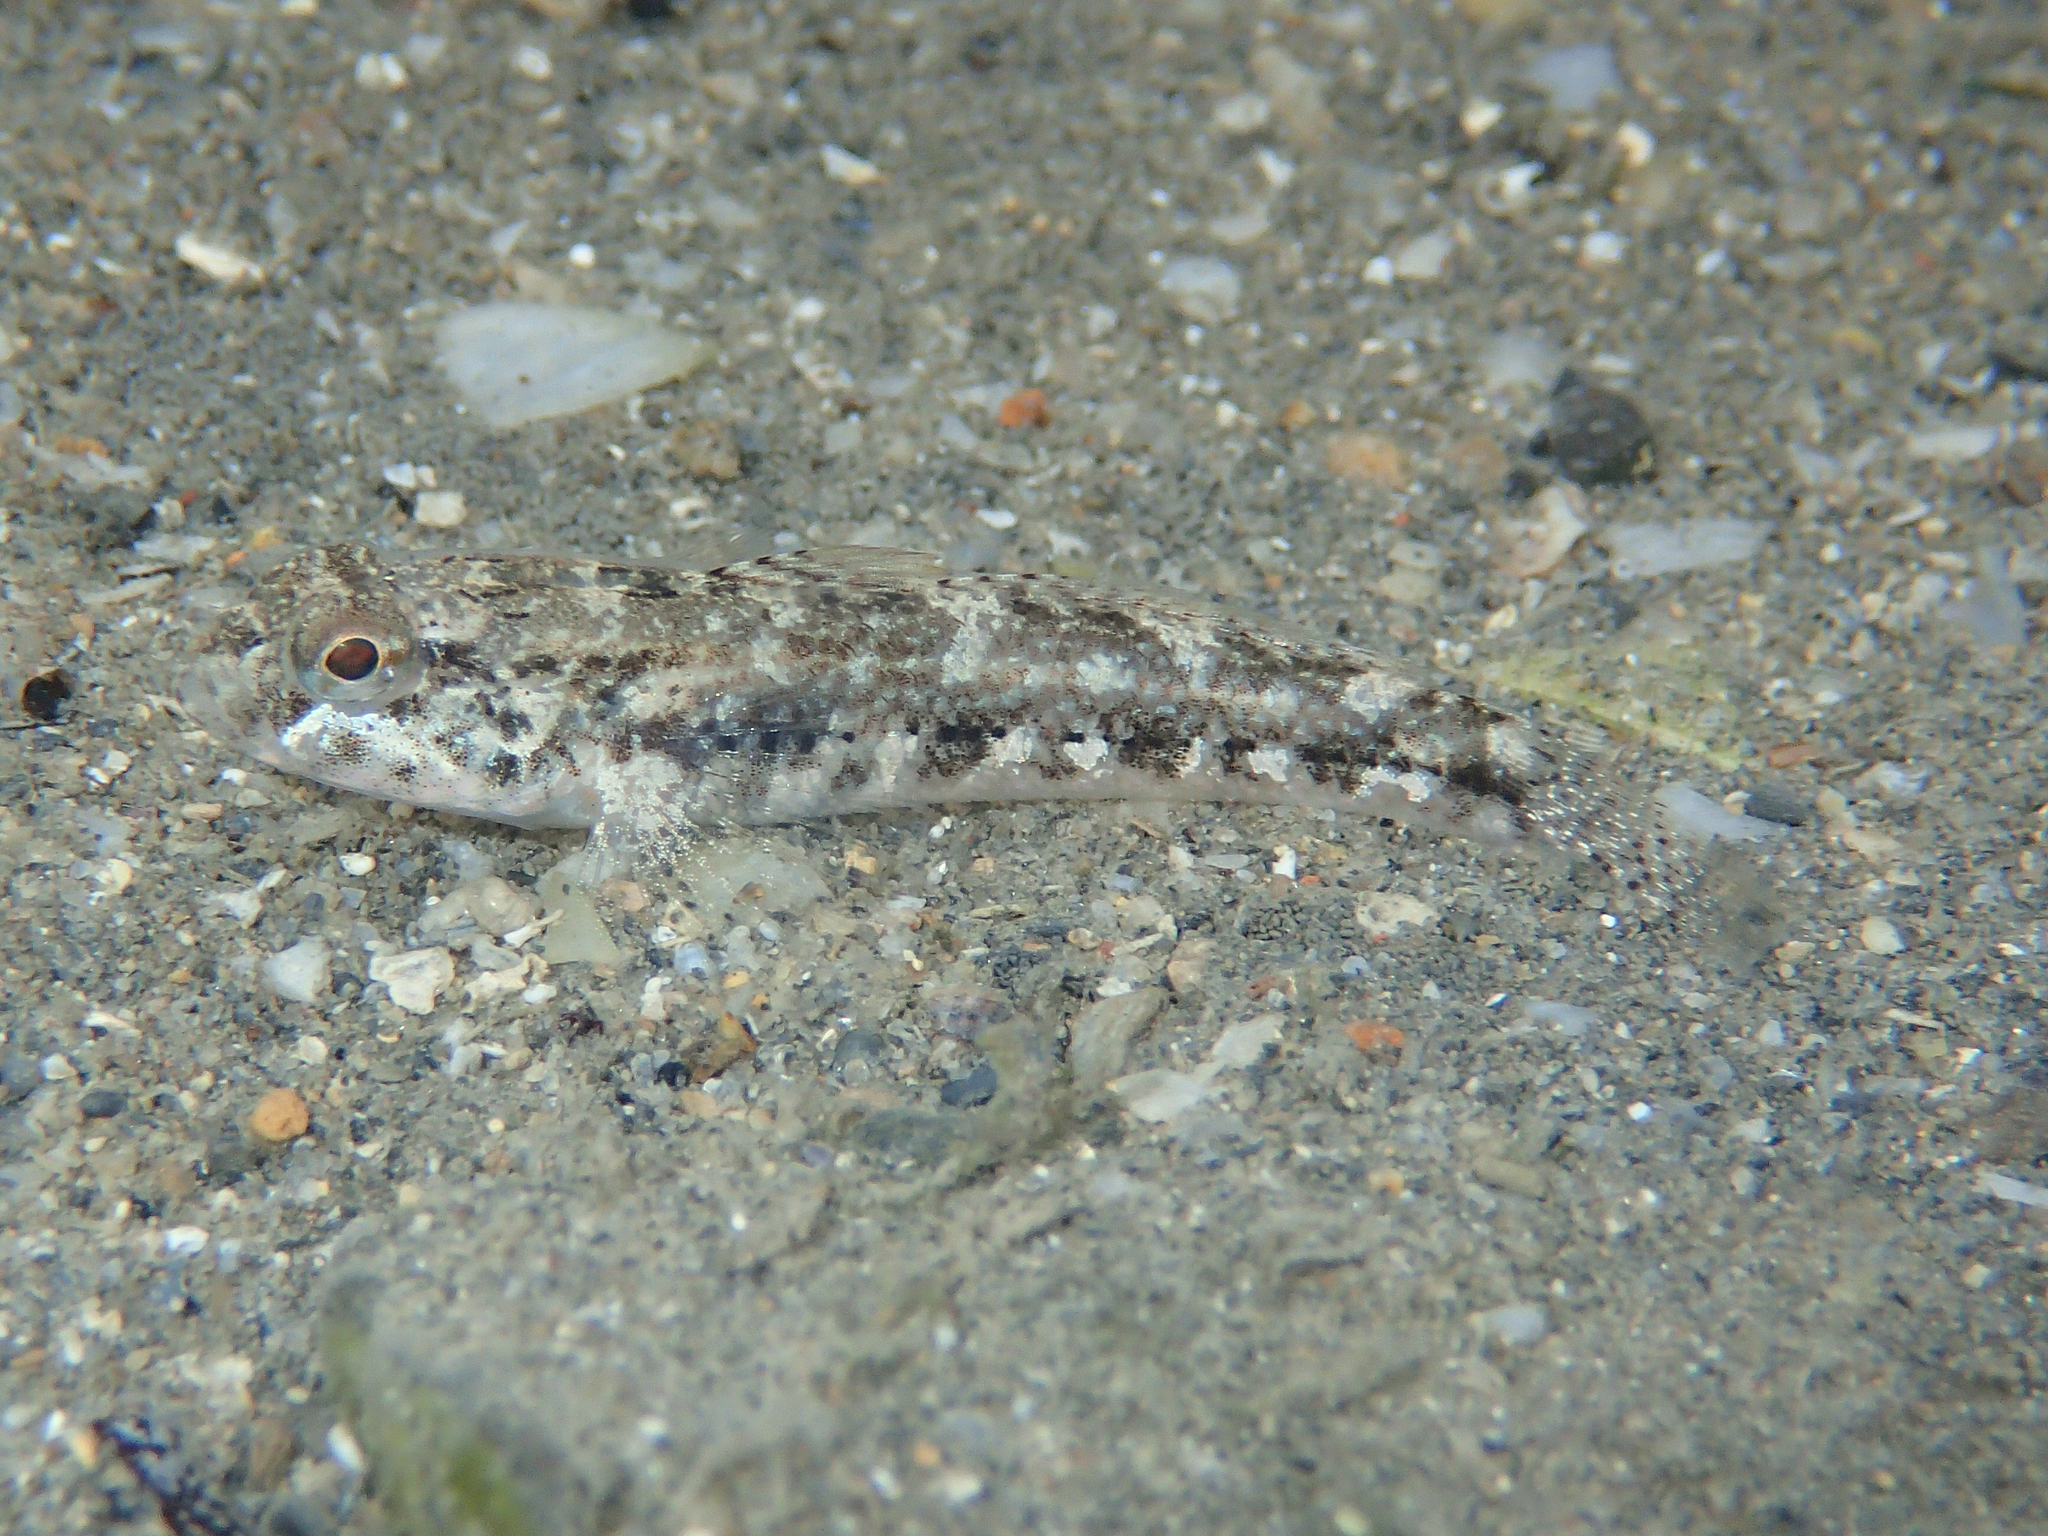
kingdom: Animalia
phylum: Chordata
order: Perciformes
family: Gobiidae
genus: Gobius
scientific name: Gobius niger
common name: Black goby
